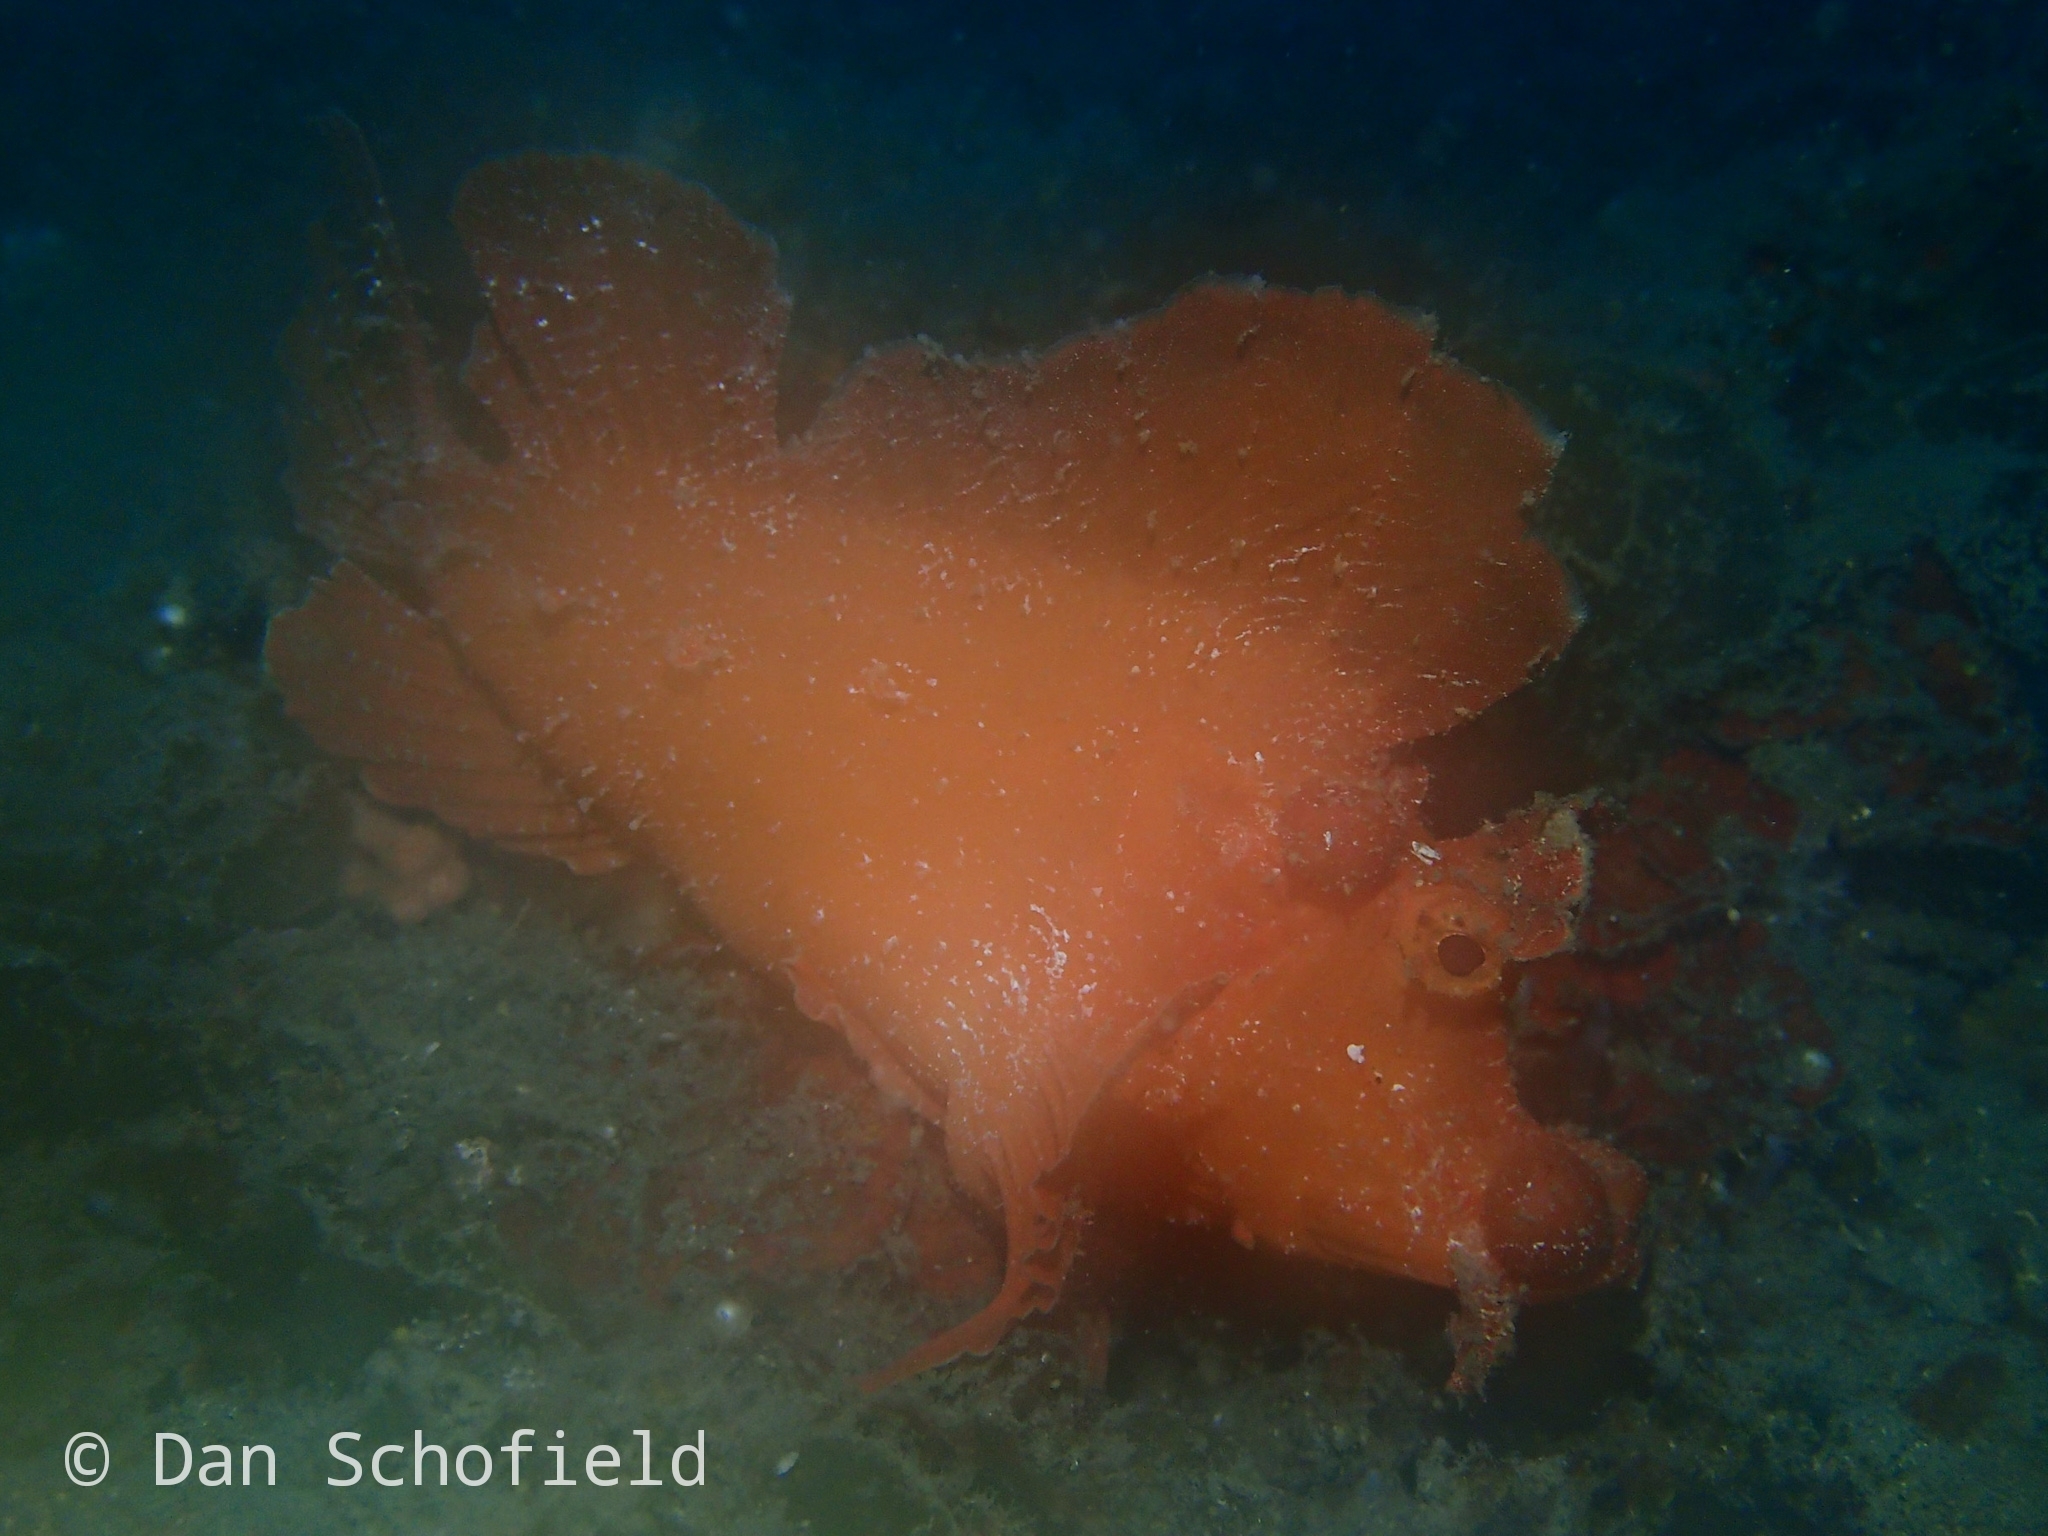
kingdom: Animalia
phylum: Chordata
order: Scorpaeniformes
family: Scorpaenidae
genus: Rhinopias
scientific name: Rhinopias eschmeyeri
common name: Eschmeyer's scorpionfish
